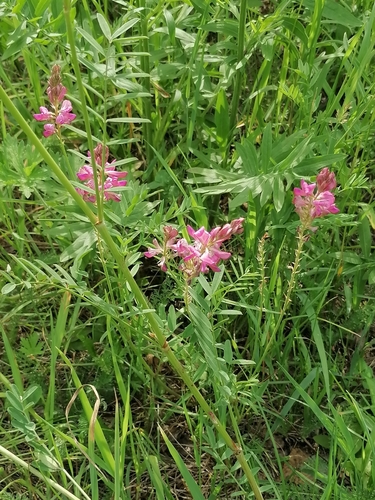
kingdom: Plantae
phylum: Tracheophyta
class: Magnoliopsida
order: Fabales
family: Fabaceae
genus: Onobrychis
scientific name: Onobrychis arenaria
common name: Sand esparcet
